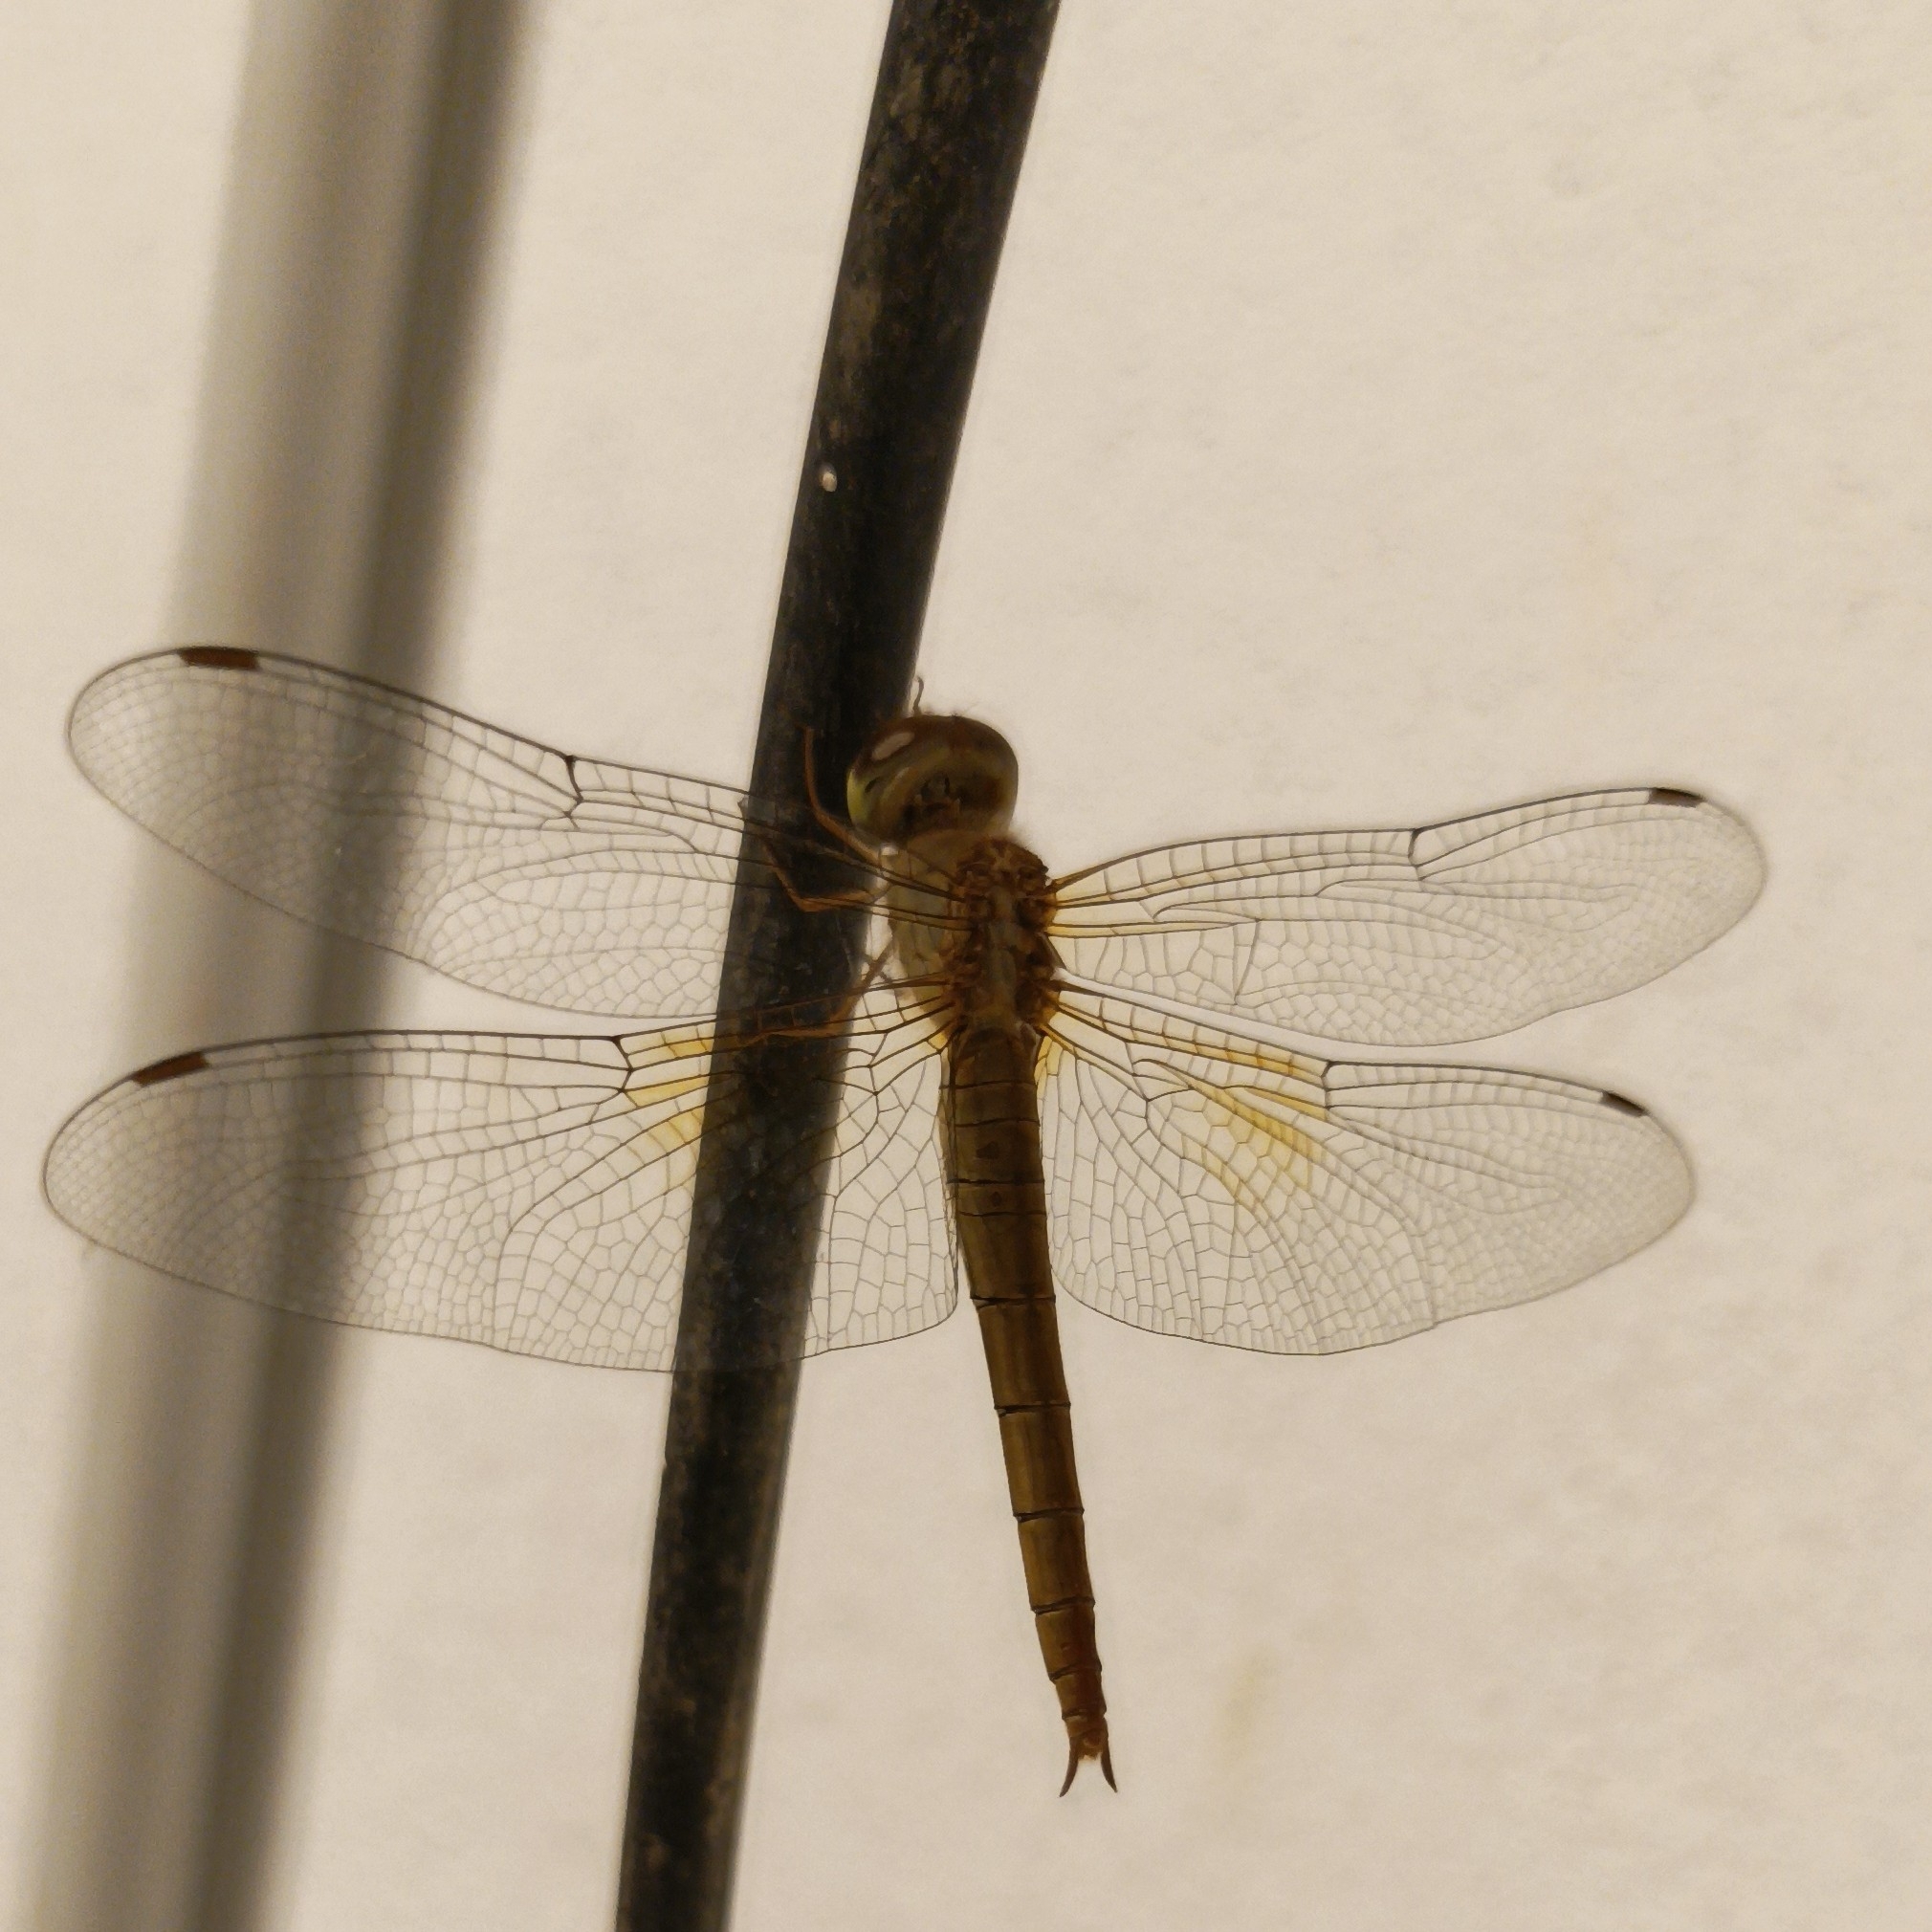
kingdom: Animalia
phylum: Arthropoda
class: Insecta
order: Odonata
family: Libellulidae
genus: Tholymis
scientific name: Tholymis tillarga
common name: Coral-tailed cloud wing
